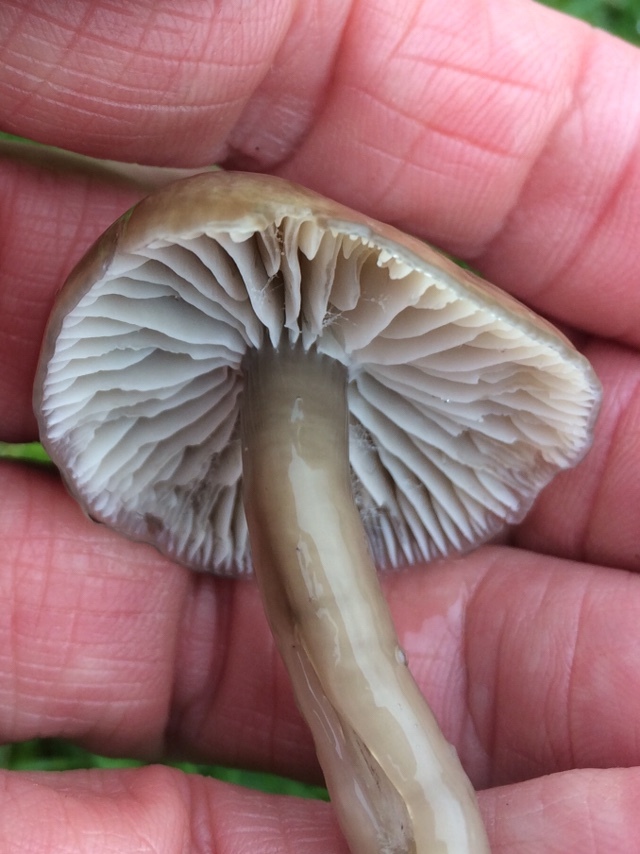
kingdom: Fungi
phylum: Basidiomycota
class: Agaricomycetes
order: Agaricales
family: Hygrophoraceae
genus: Gliophorus
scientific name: Gliophorus irrigatus
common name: Slimy waxcap
